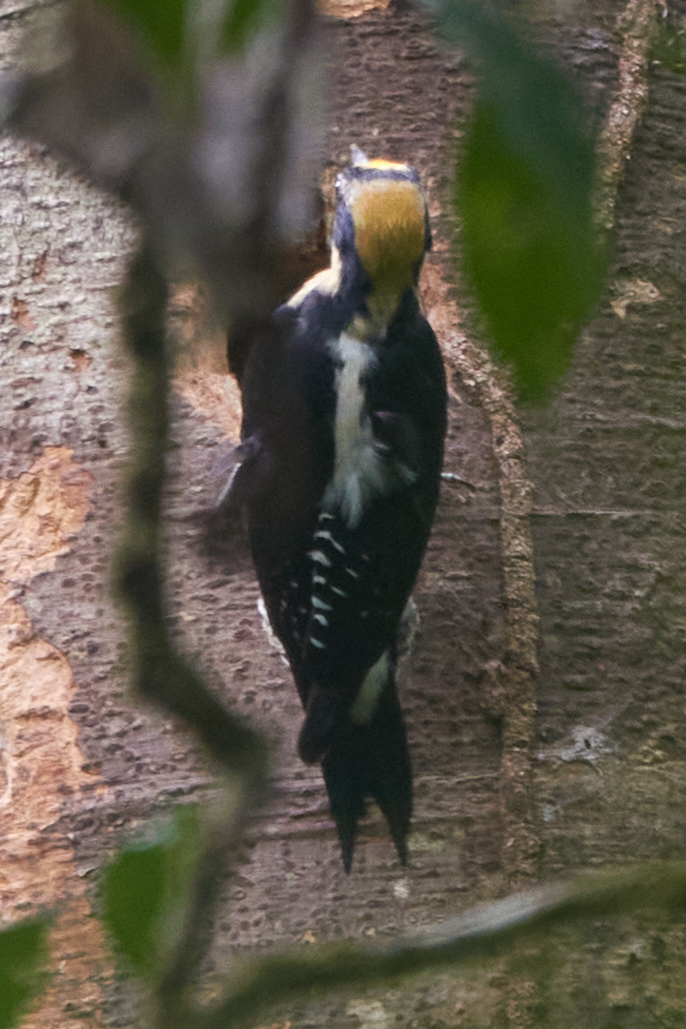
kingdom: Animalia
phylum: Chordata
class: Aves
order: Piciformes
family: Picidae
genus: Melanerpes
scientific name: Melanerpes chrysauchen
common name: Golden-naped woodpecker
